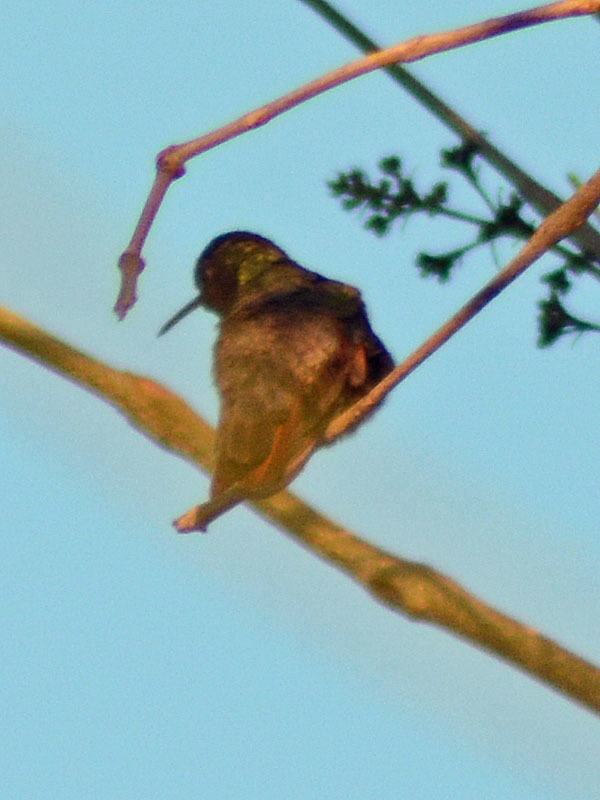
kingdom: Animalia
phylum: Chordata
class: Aves
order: Apodiformes
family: Trochilidae
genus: Saucerottia
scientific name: Saucerottia beryllina
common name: Berylline hummingbird
